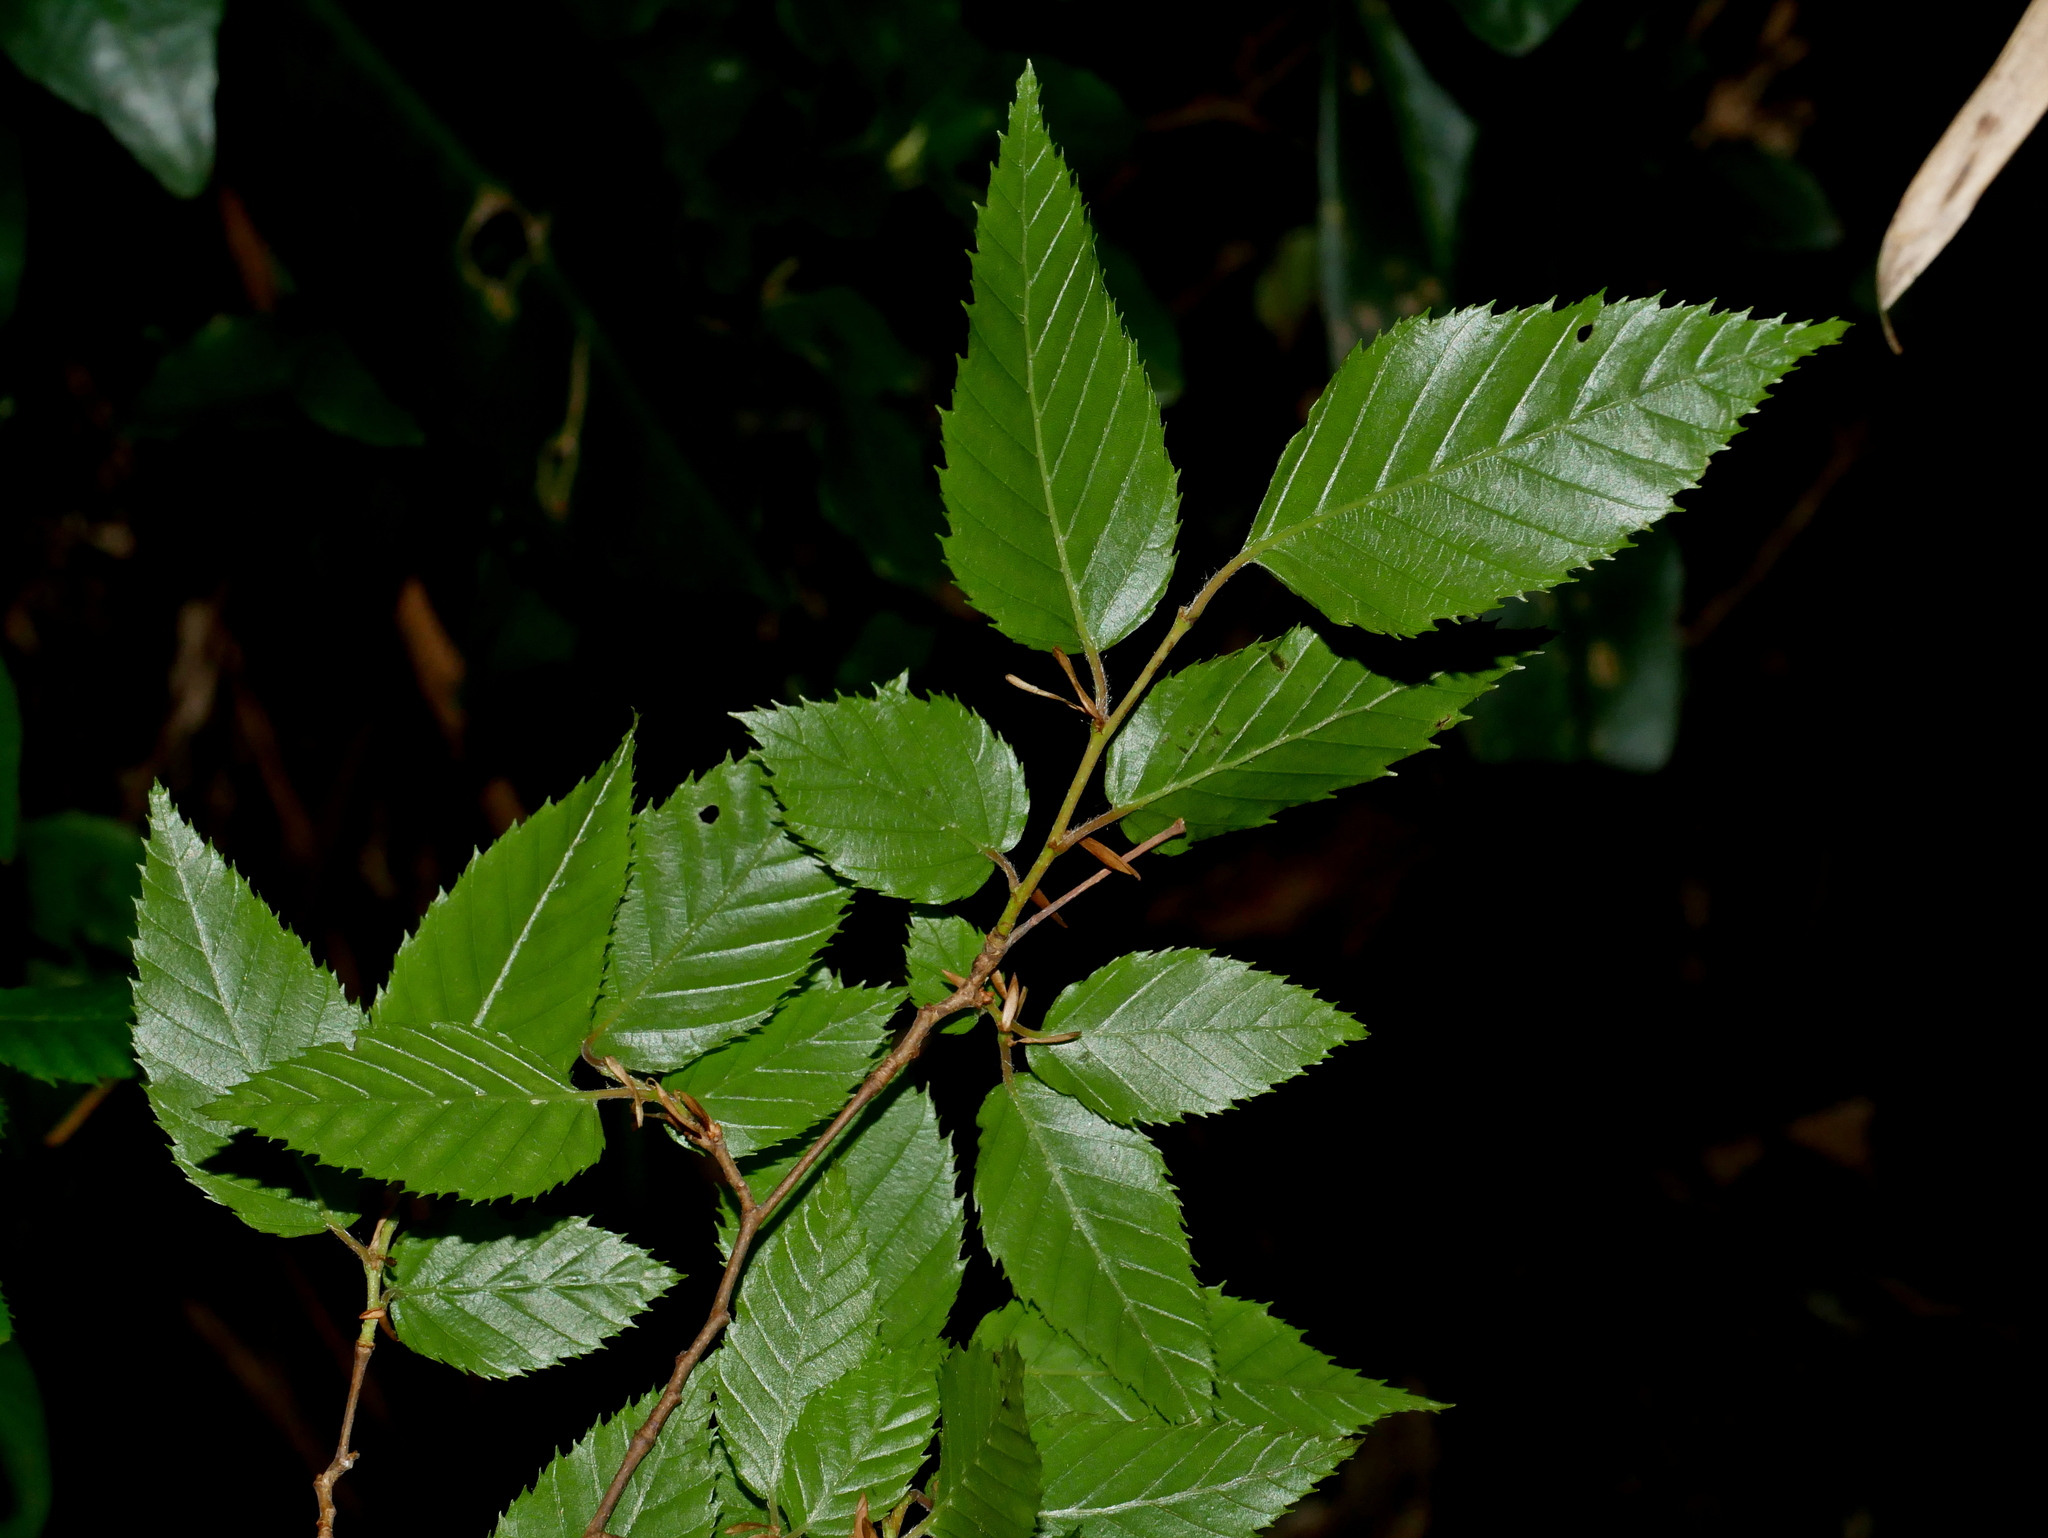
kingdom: Plantae
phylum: Tracheophyta
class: Magnoliopsida
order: Fagales
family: Betulaceae
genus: Carpinus
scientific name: Carpinus kawakamii
